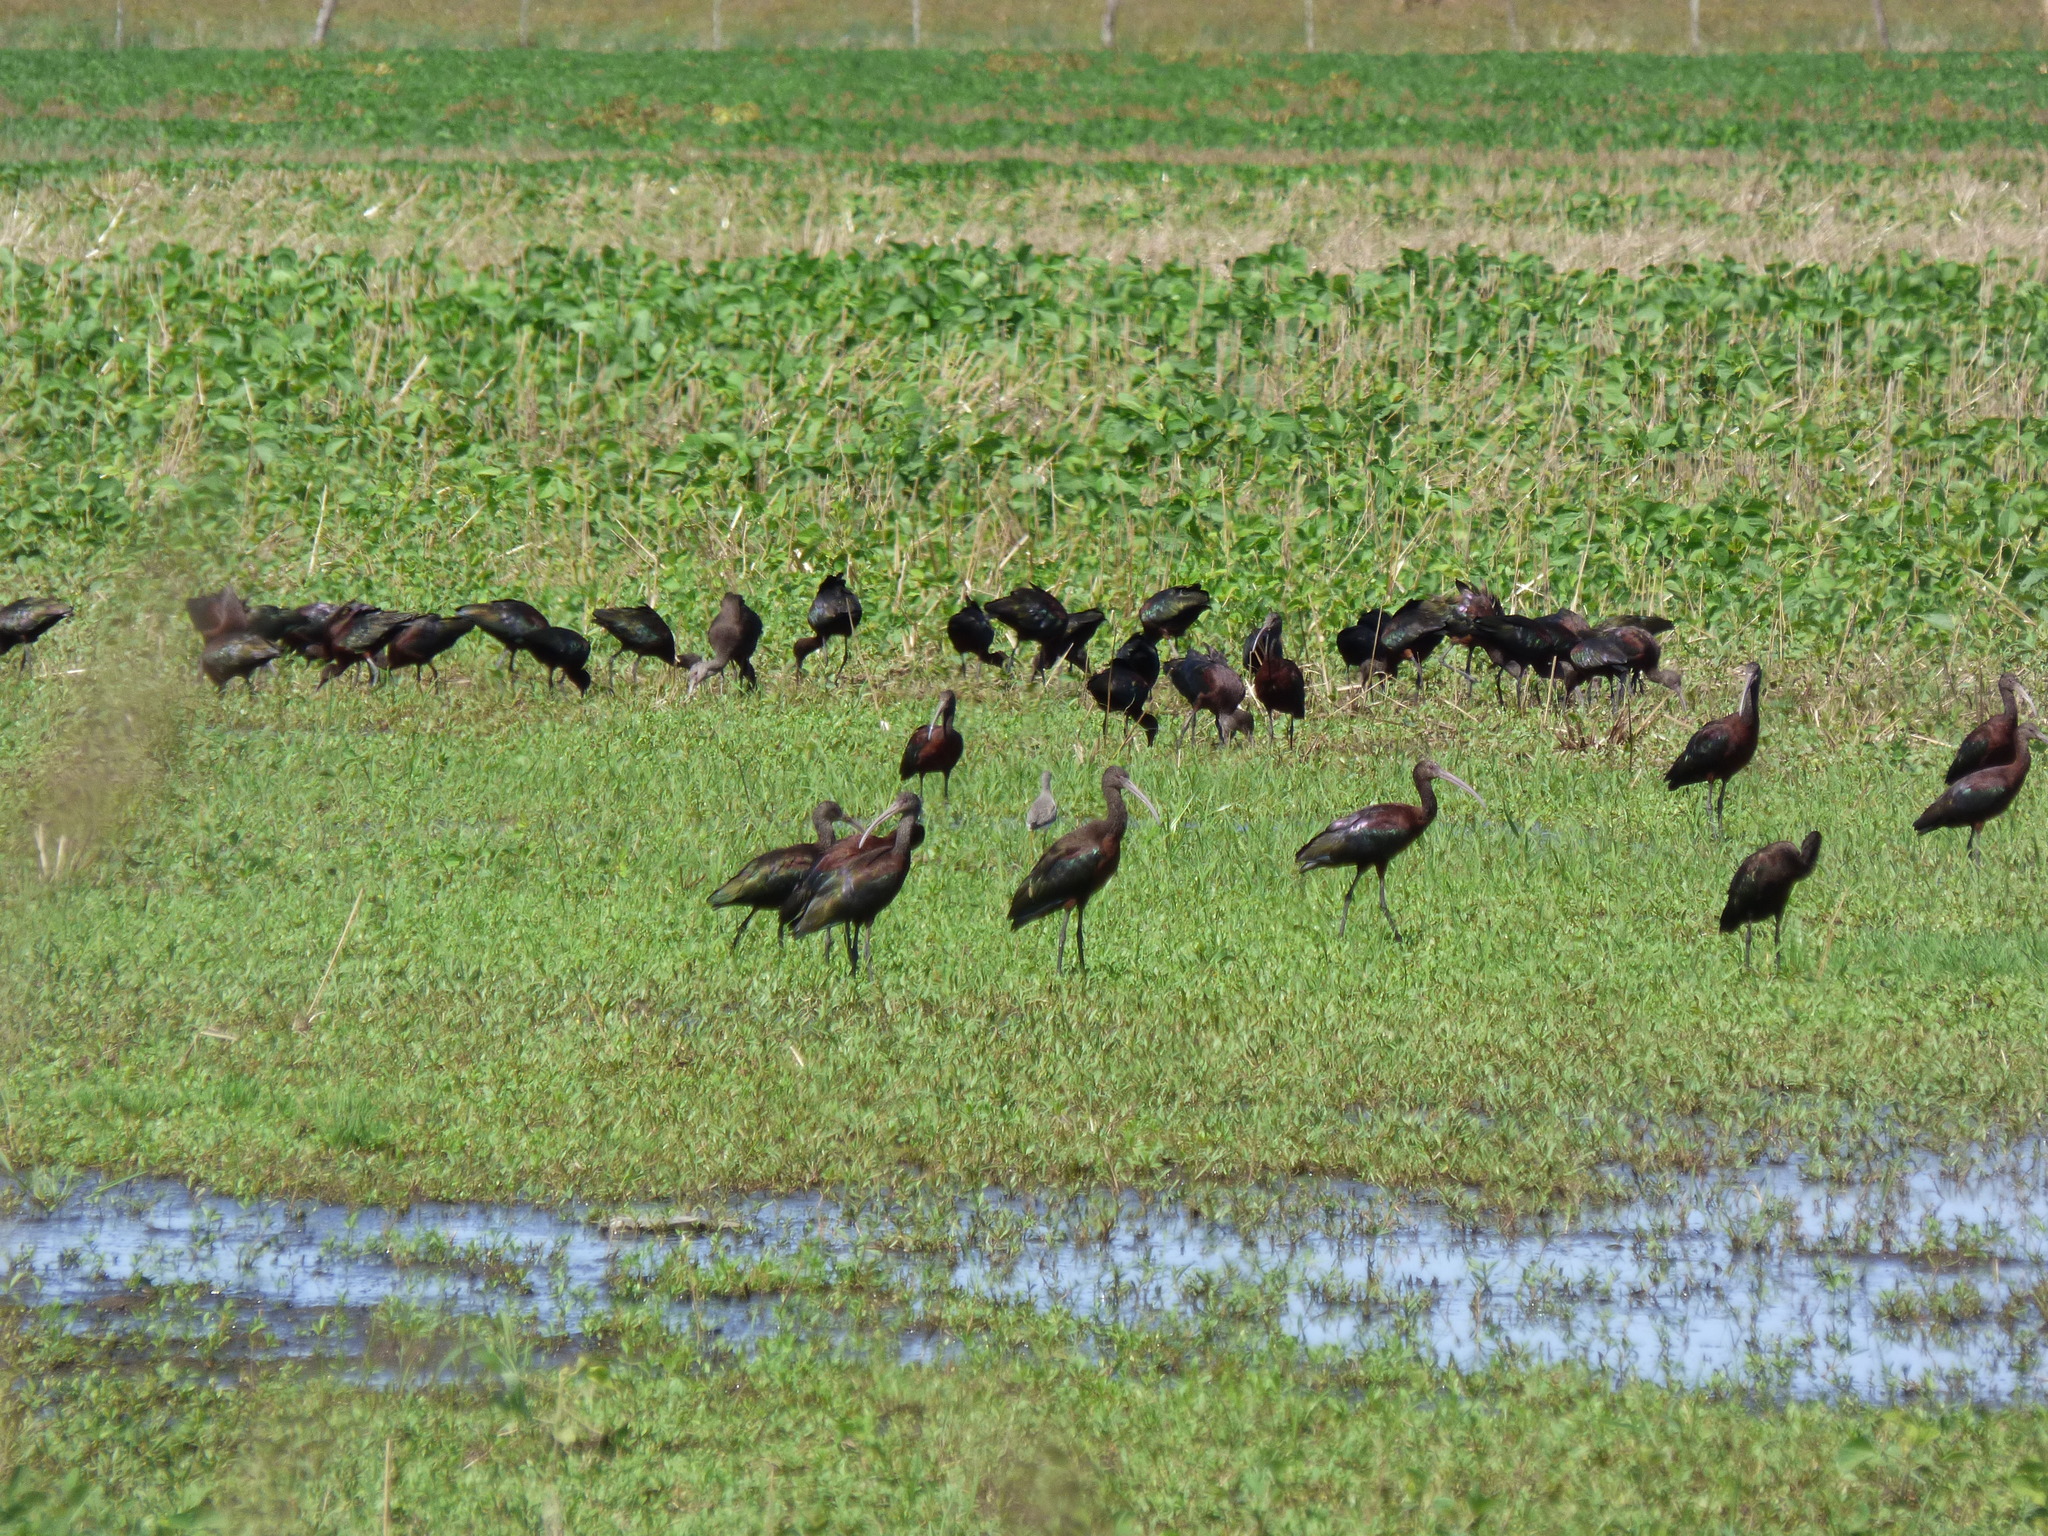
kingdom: Animalia
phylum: Chordata
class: Aves
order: Pelecaniformes
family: Threskiornithidae
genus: Plegadis
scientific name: Plegadis chihi
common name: White-faced ibis
